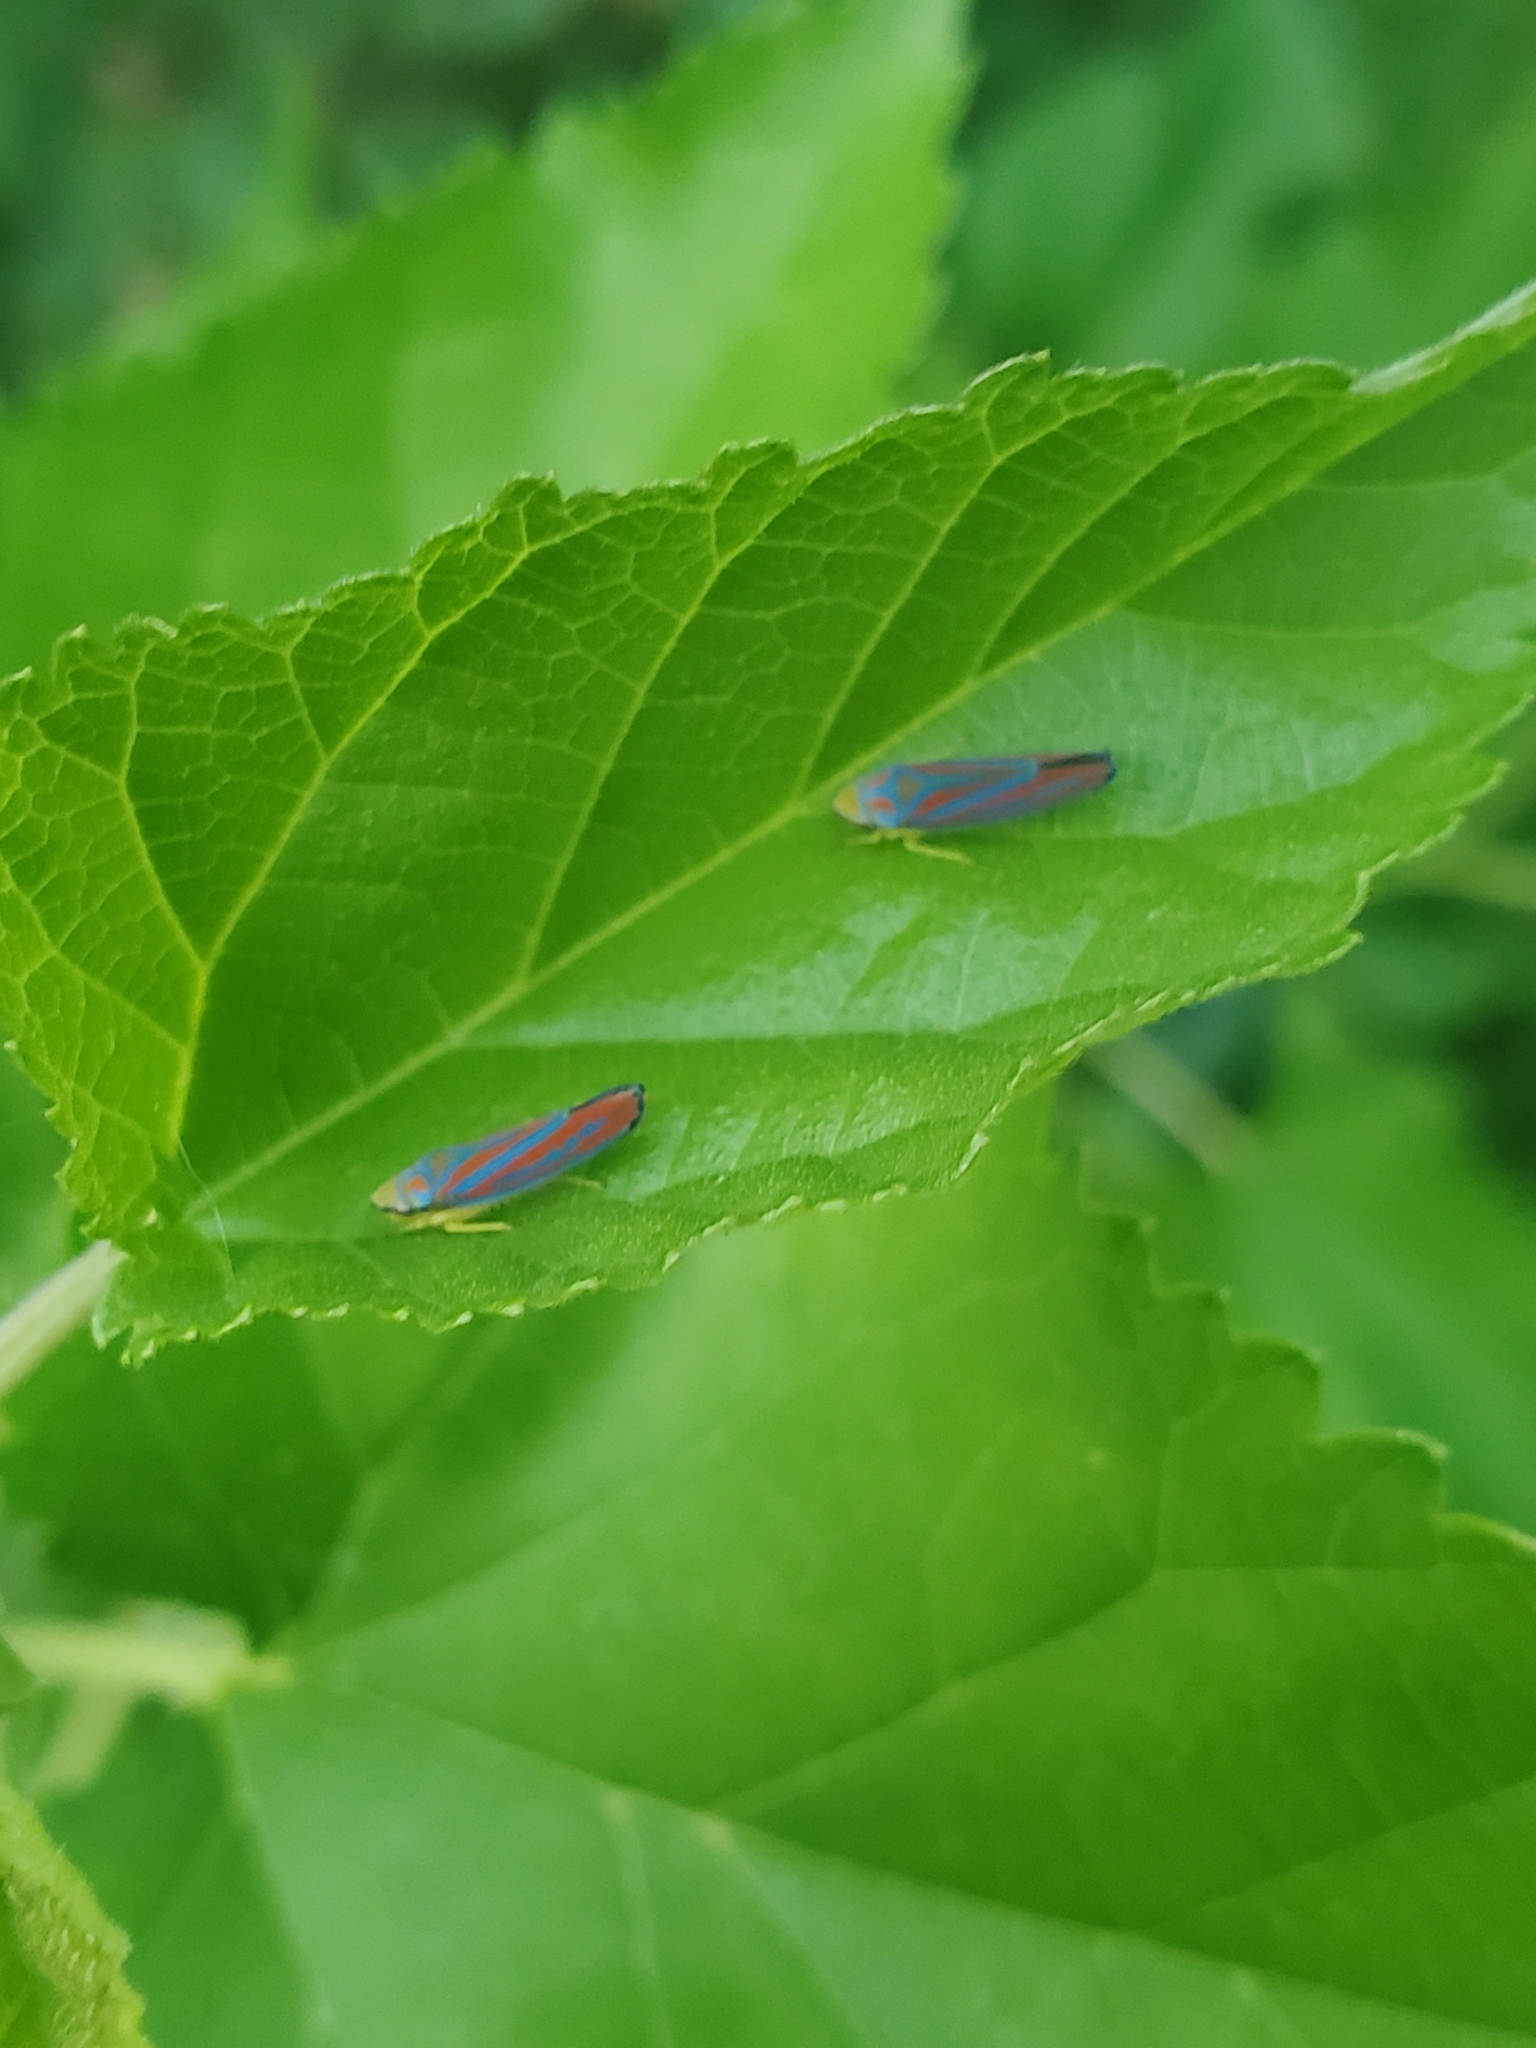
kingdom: Animalia
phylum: Arthropoda
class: Insecta
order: Hemiptera
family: Cicadellidae
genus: Graphocephala
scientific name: Graphocephala coccinea
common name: Candy-striped leafhopper
